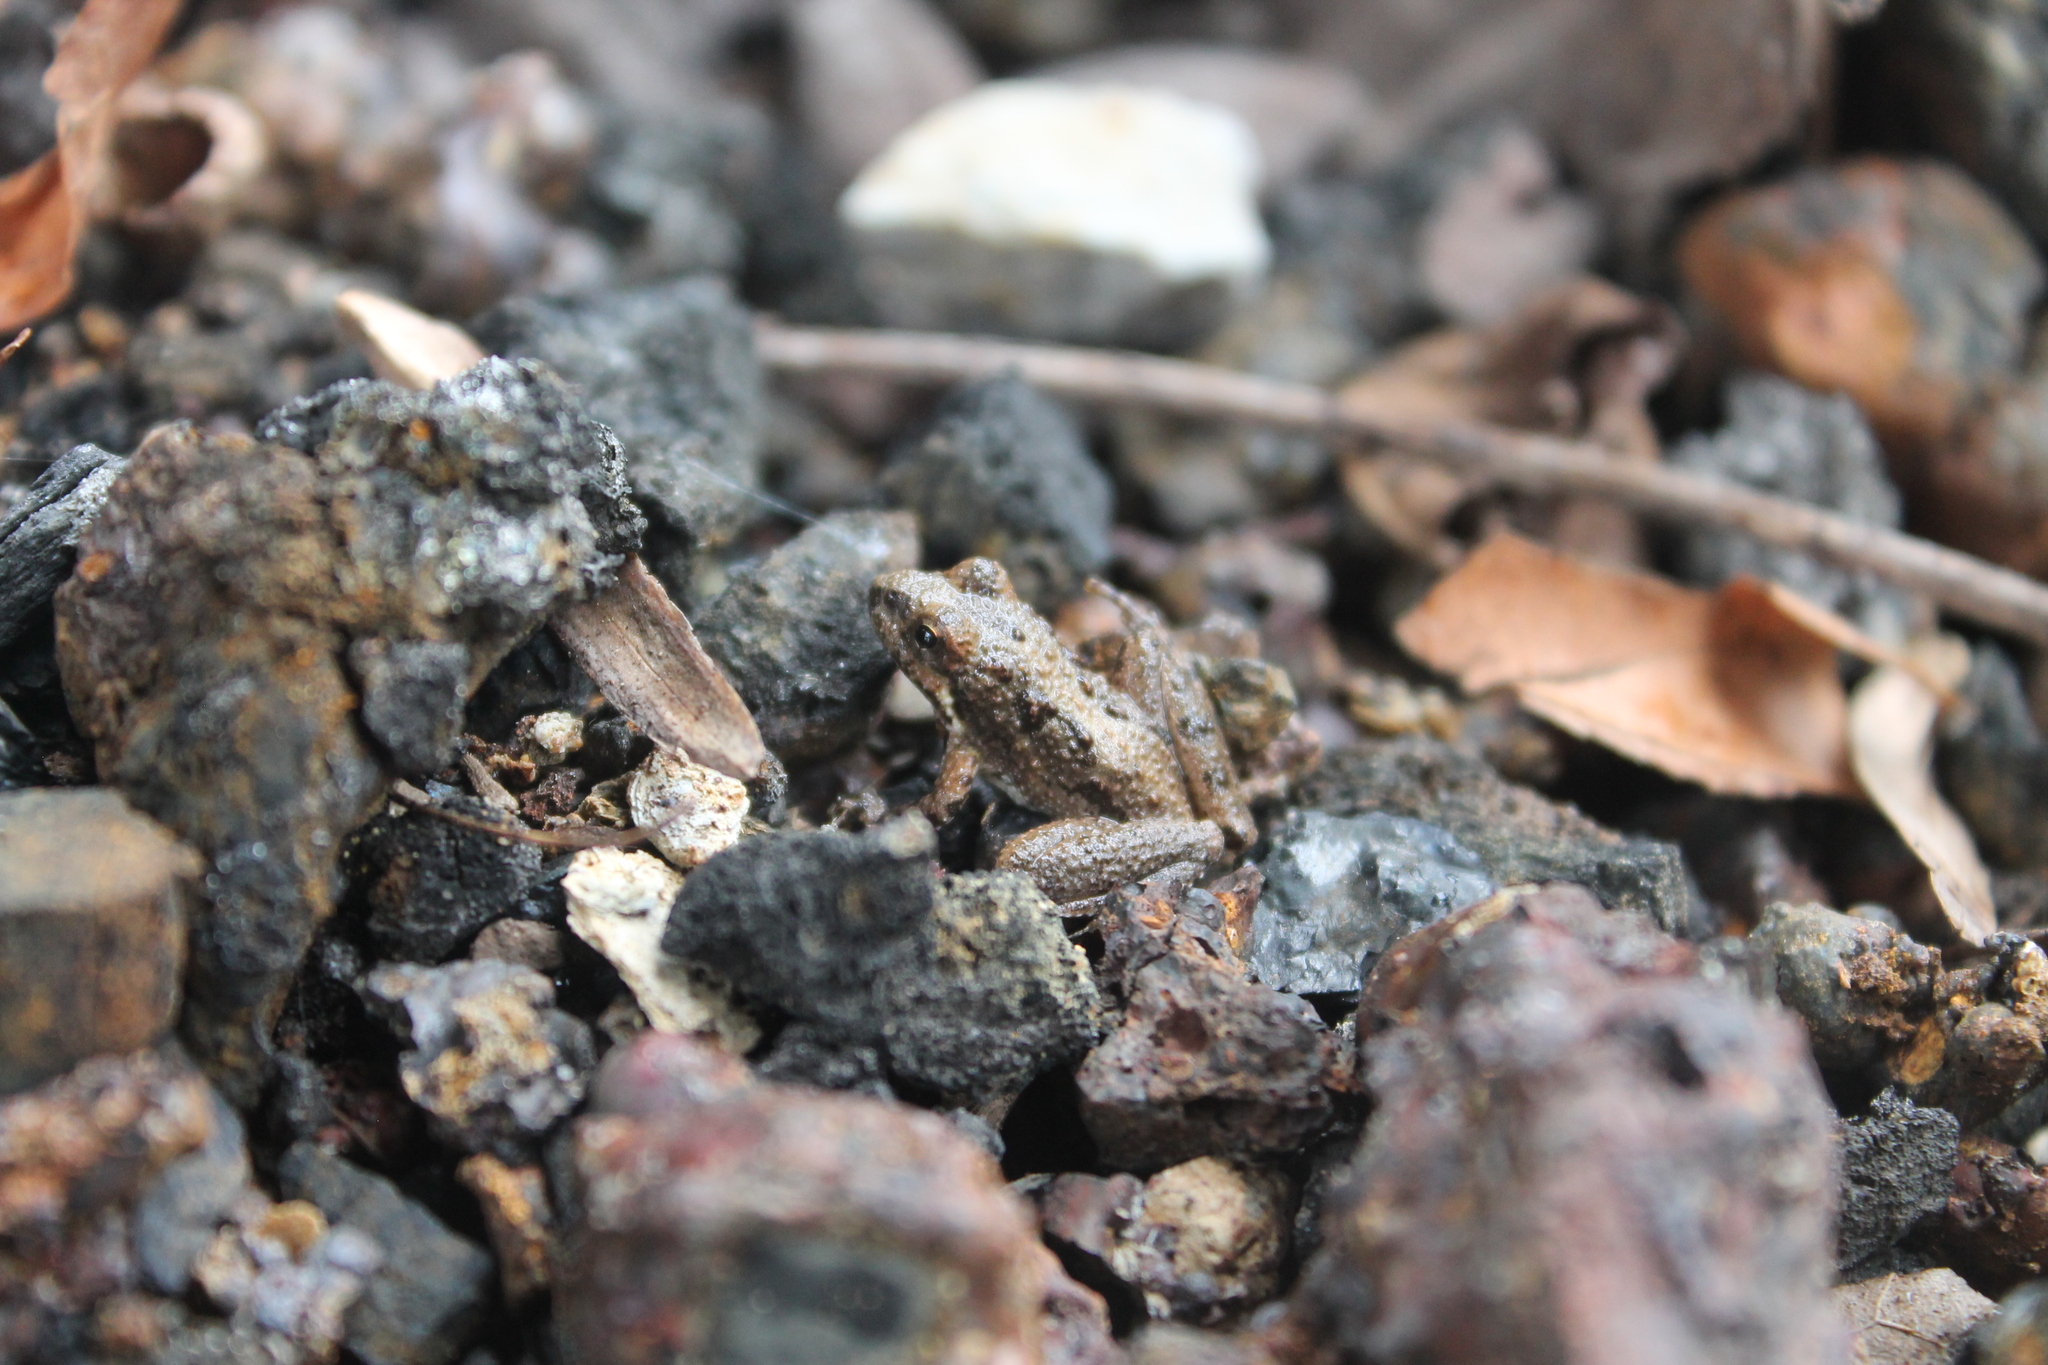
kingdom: Animalia
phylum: Chordata
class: Amphibia
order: Anura
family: Hylidae
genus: Acris
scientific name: Acris crepitans
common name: Northern cricket frog
